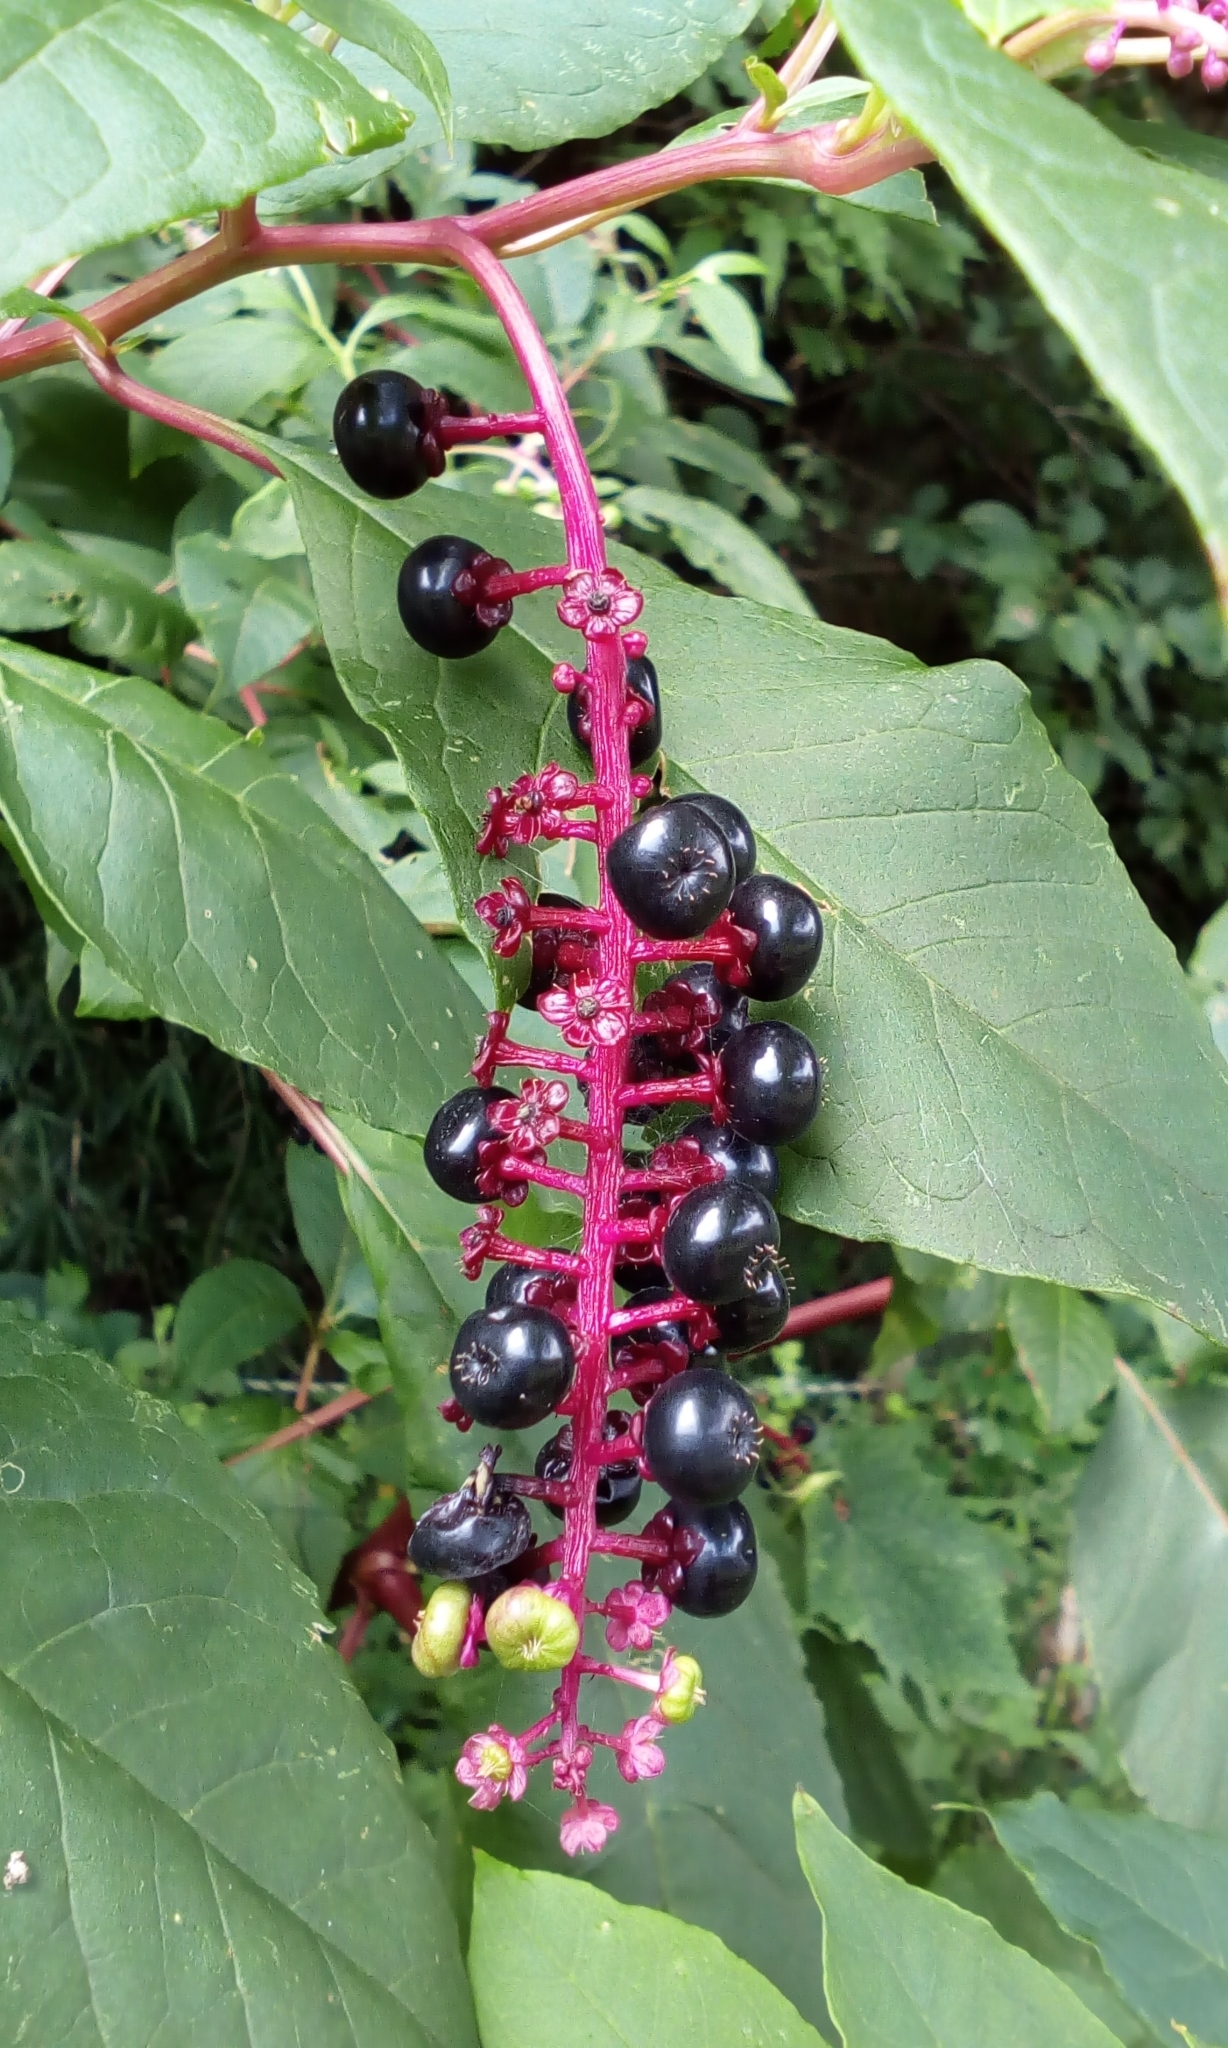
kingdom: Plantae
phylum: Tracheophyta
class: Magnoliopsida
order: Caryophyllales
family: Phytolaccaceae
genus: Phytolacca
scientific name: Phytolacca americana
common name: American pokeweed
